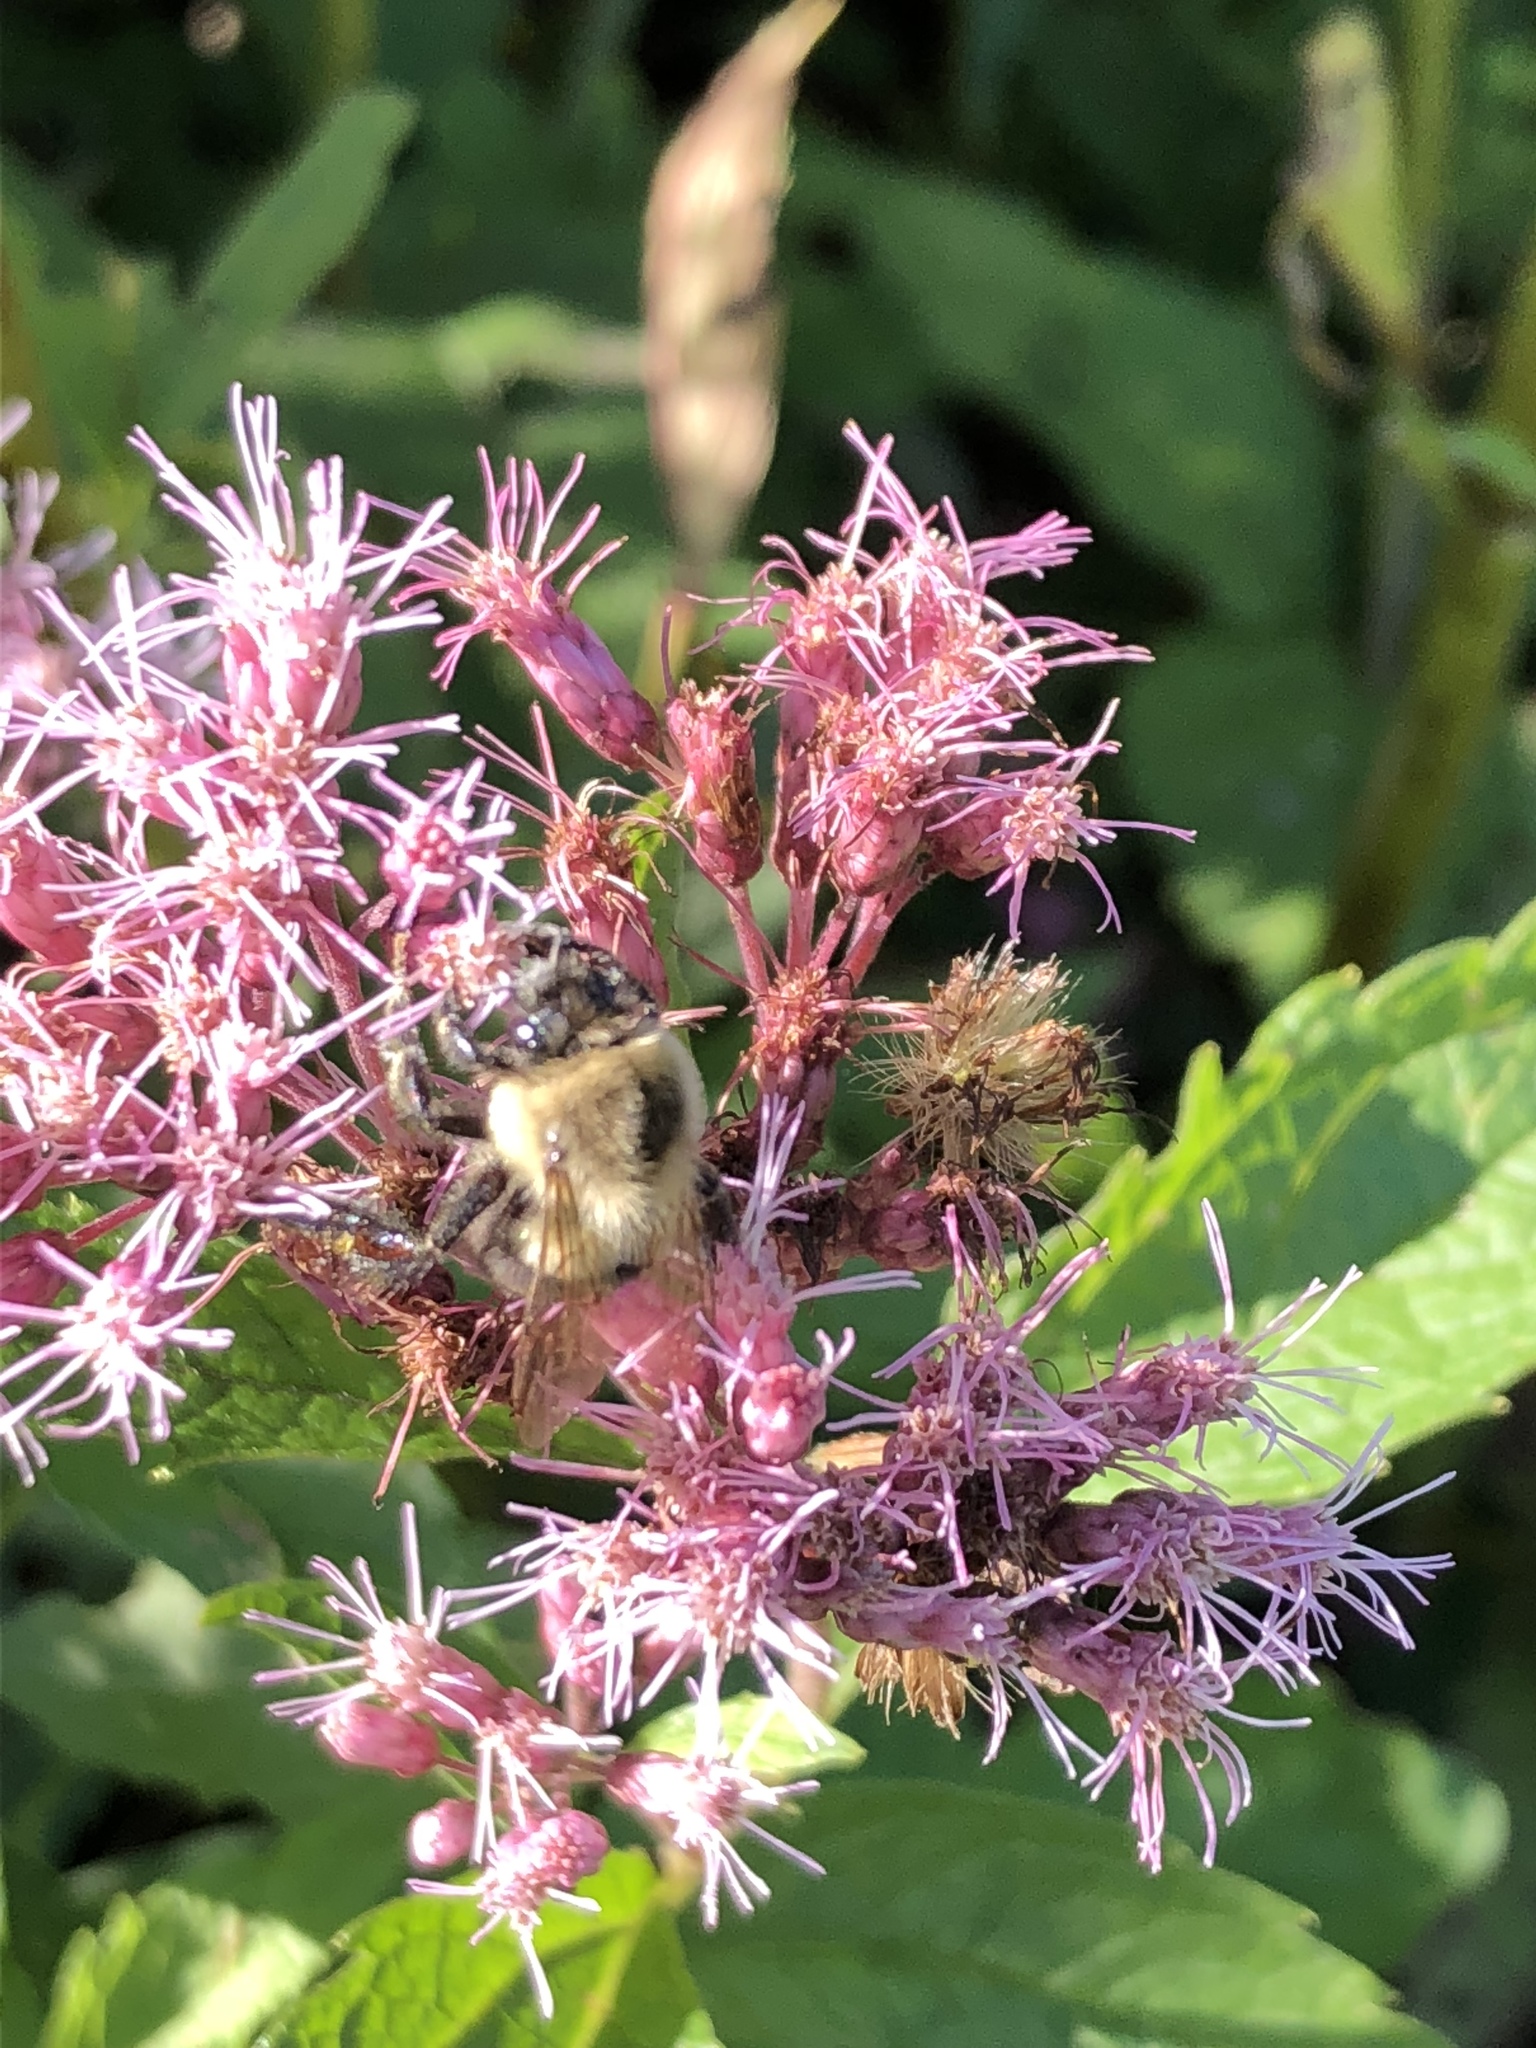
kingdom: Animalia
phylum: Arthropoda
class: Insecta
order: Hymenoptera
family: Apidae
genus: Bombus
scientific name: Bombus impatiens
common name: Common eastern bumble bee
